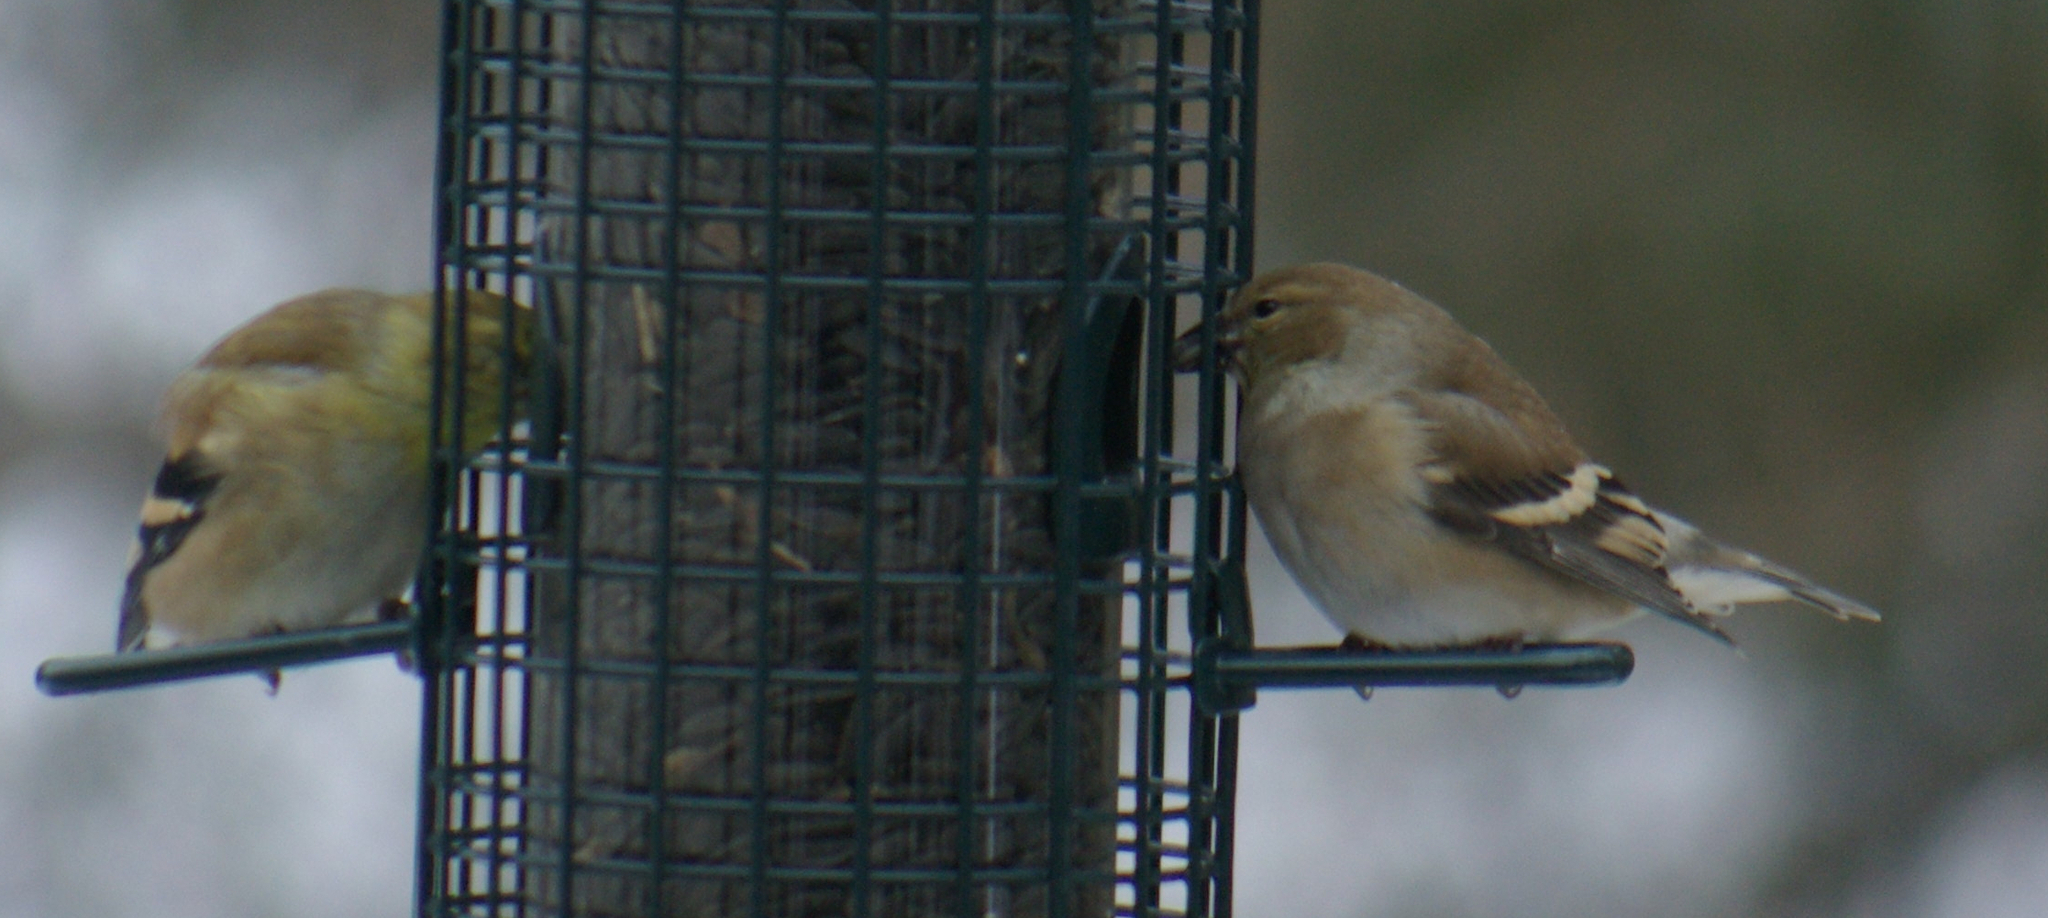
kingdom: Animalia
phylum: Chordata
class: Aves
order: Passeriformes
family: Fringillidae
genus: Spinus
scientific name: Spinus tristis
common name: American goldfinch
